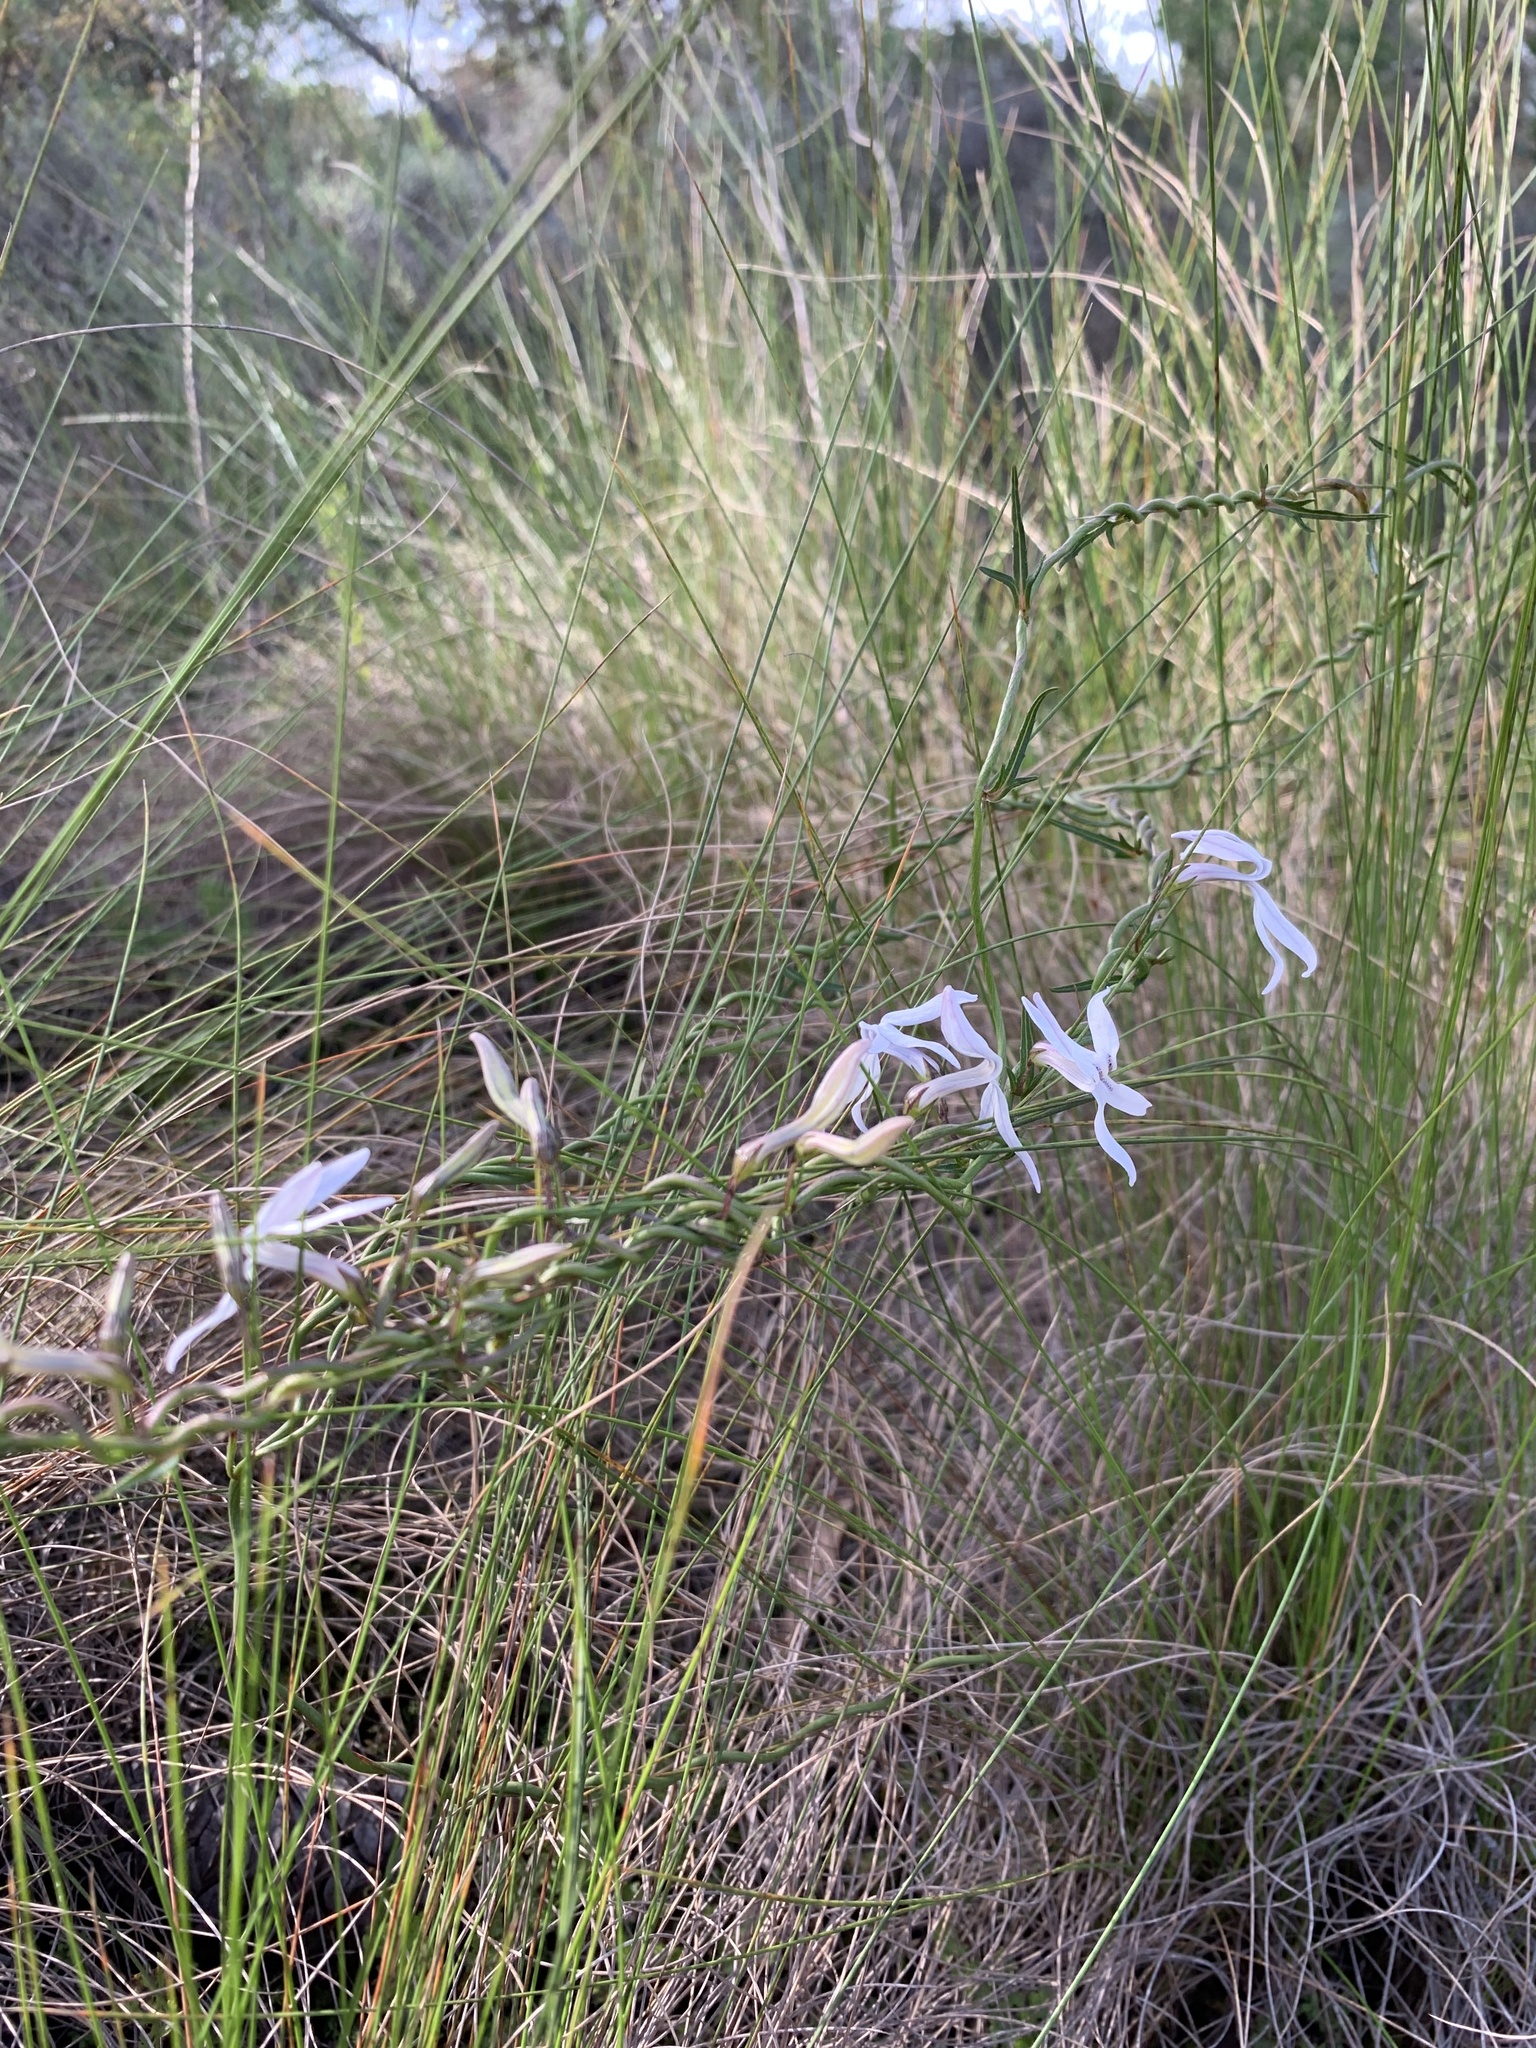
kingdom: Plantae
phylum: Tracheophyta
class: Magnoliopsida
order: Asterales
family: Campanulaceae
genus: Cyphia
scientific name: Cyphia volubilis
